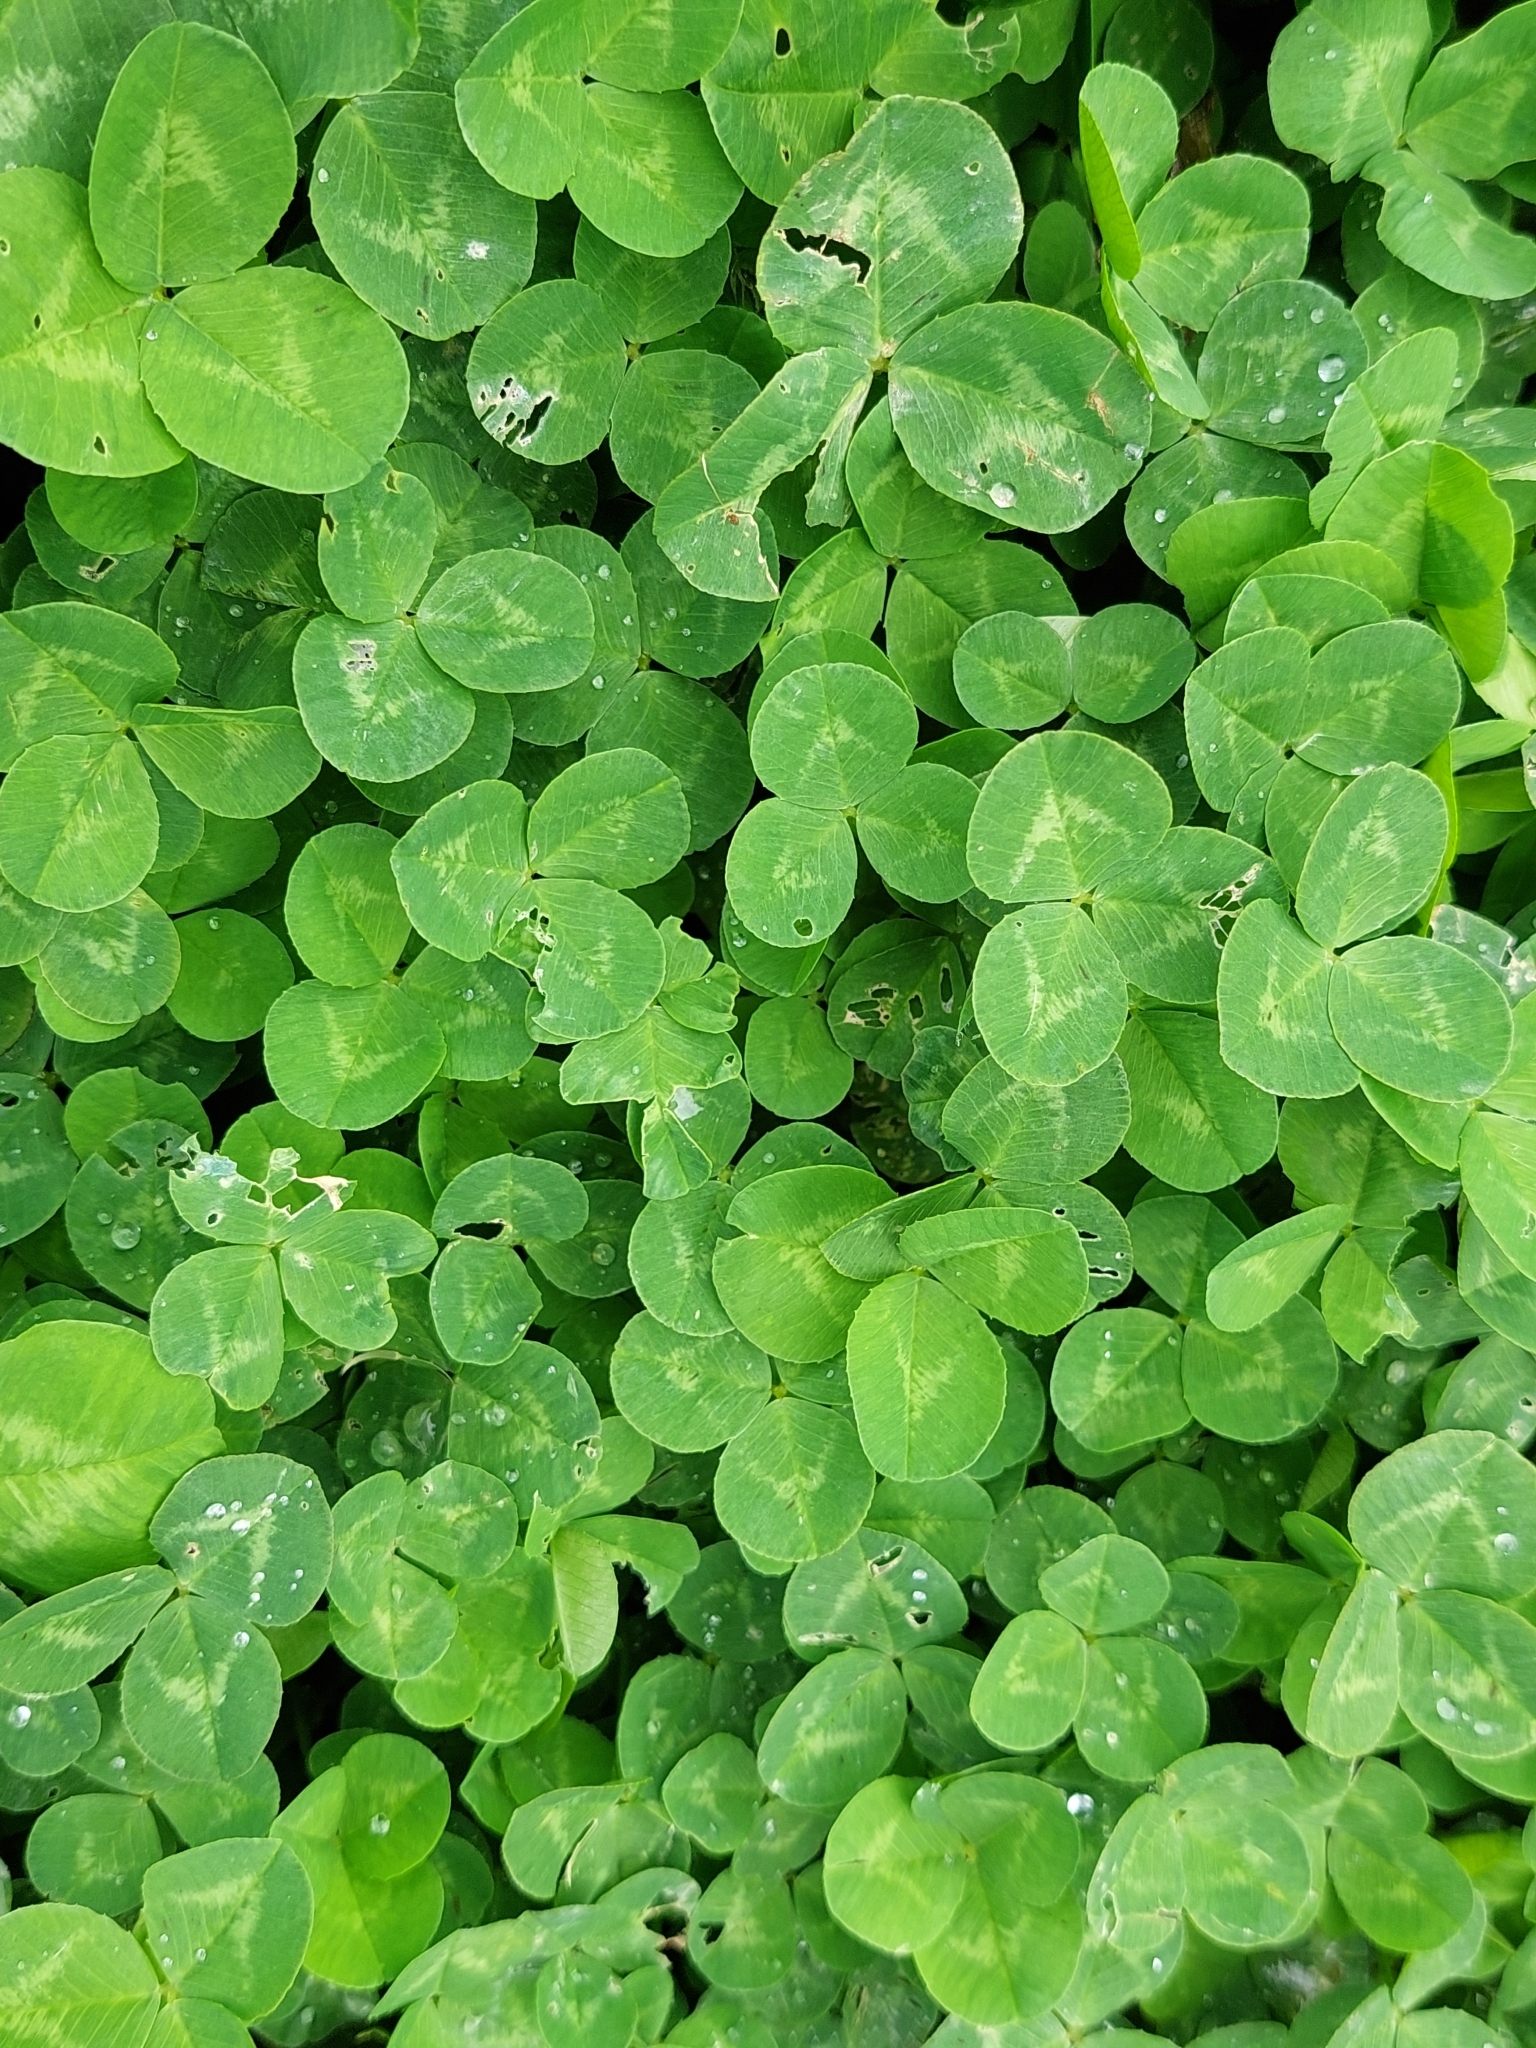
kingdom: Plantae
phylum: Tracheophyta
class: Magnoliopsida
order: Fabales
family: Fabaceae
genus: Trifolium
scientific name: Trifolium repens
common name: White clover
